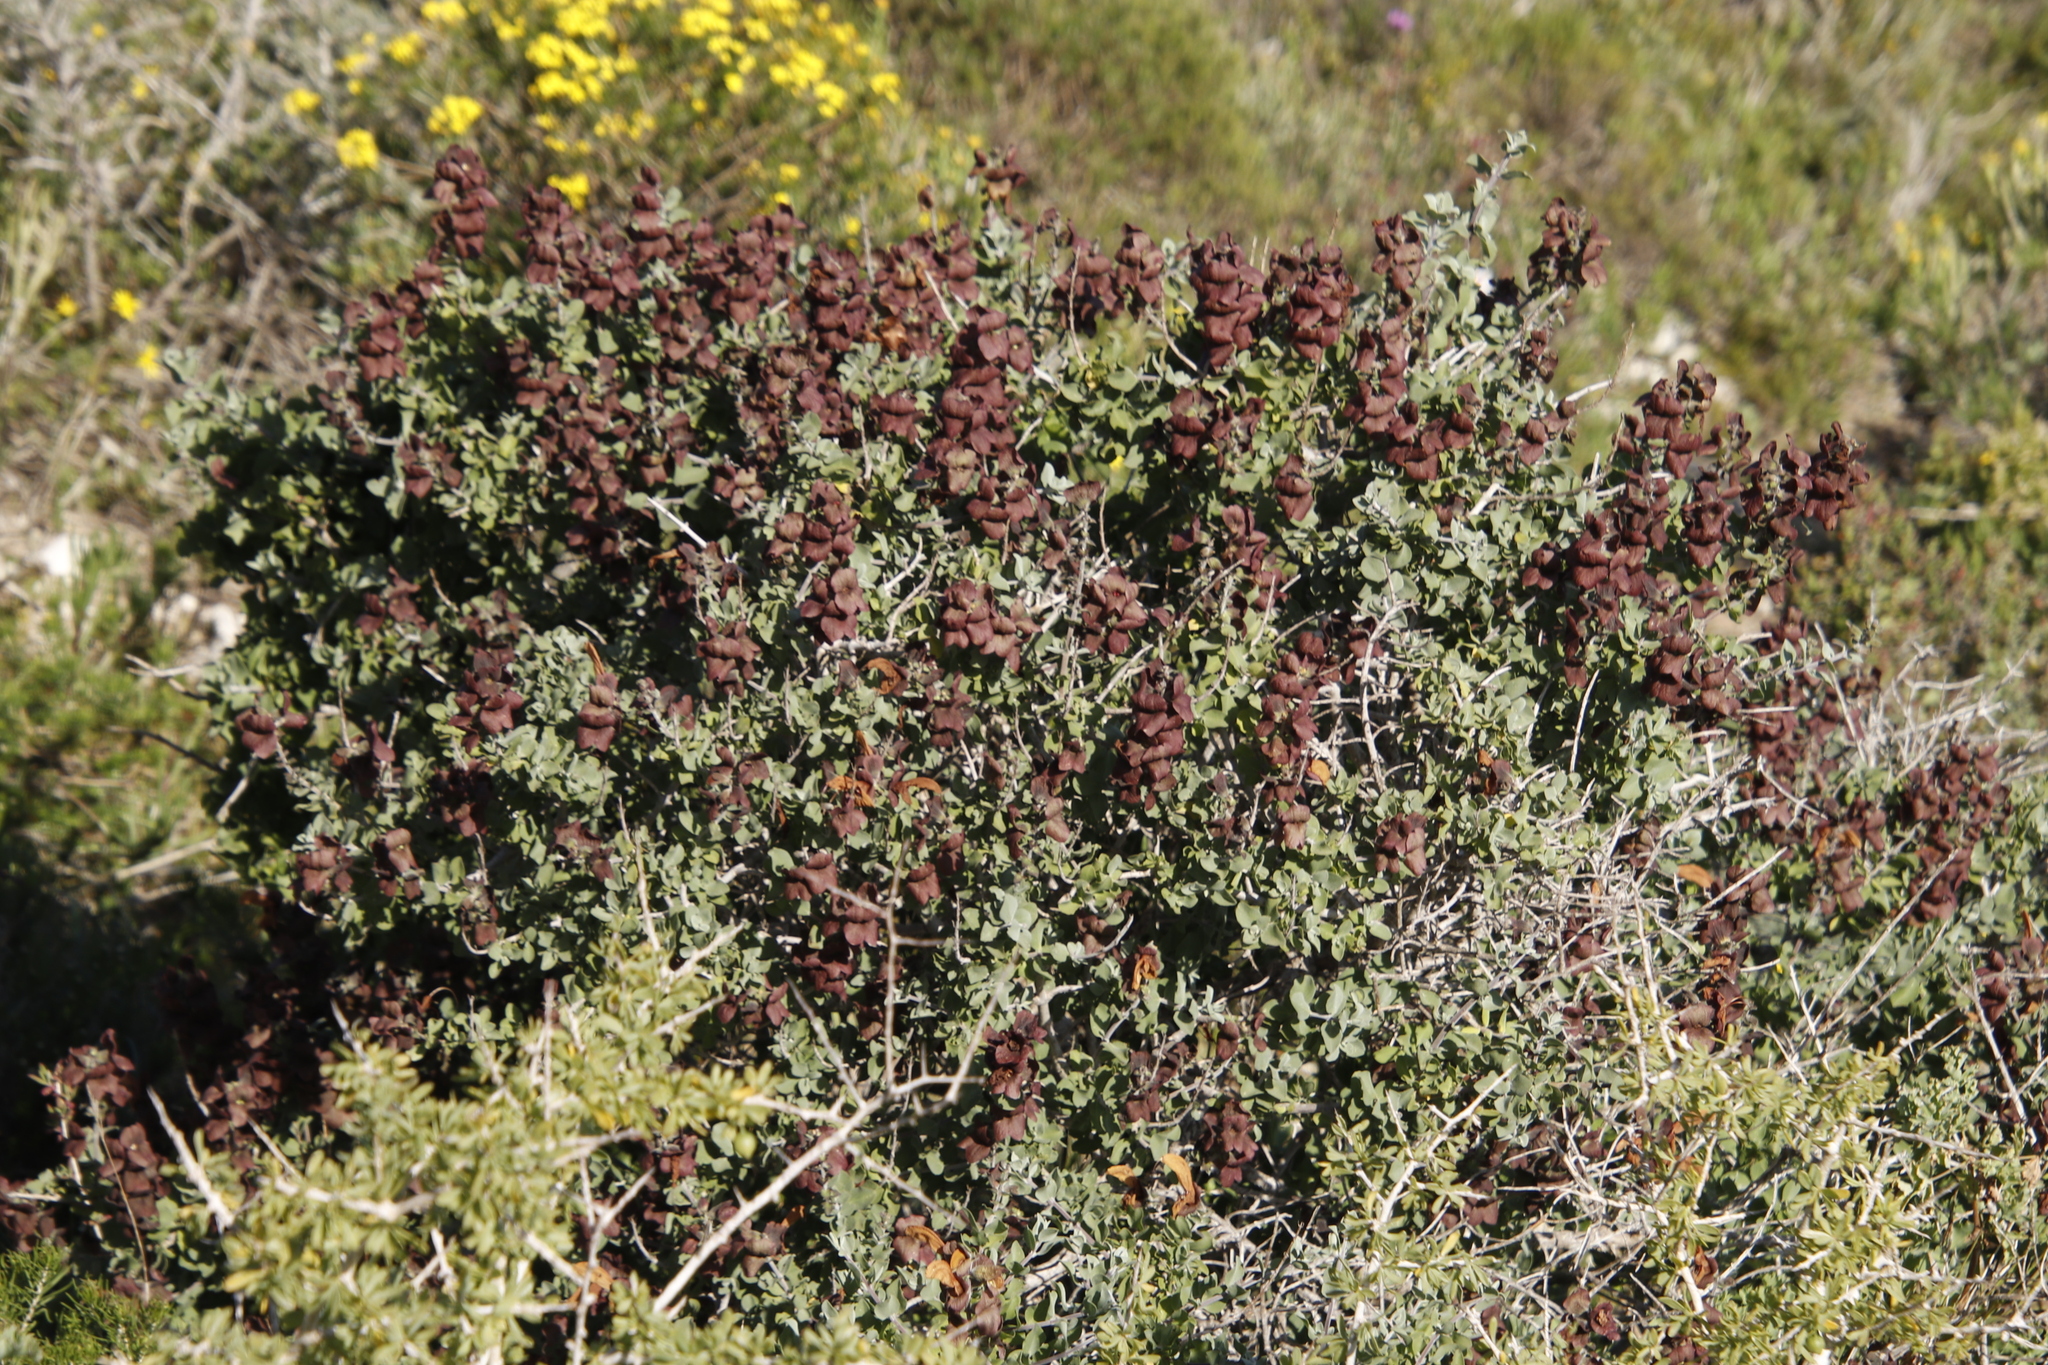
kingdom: Plantae
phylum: Tracheophyta
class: Magnoliopsida
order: Lamiales
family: Lamiaceae
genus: Salvia
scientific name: Salvia aurea
